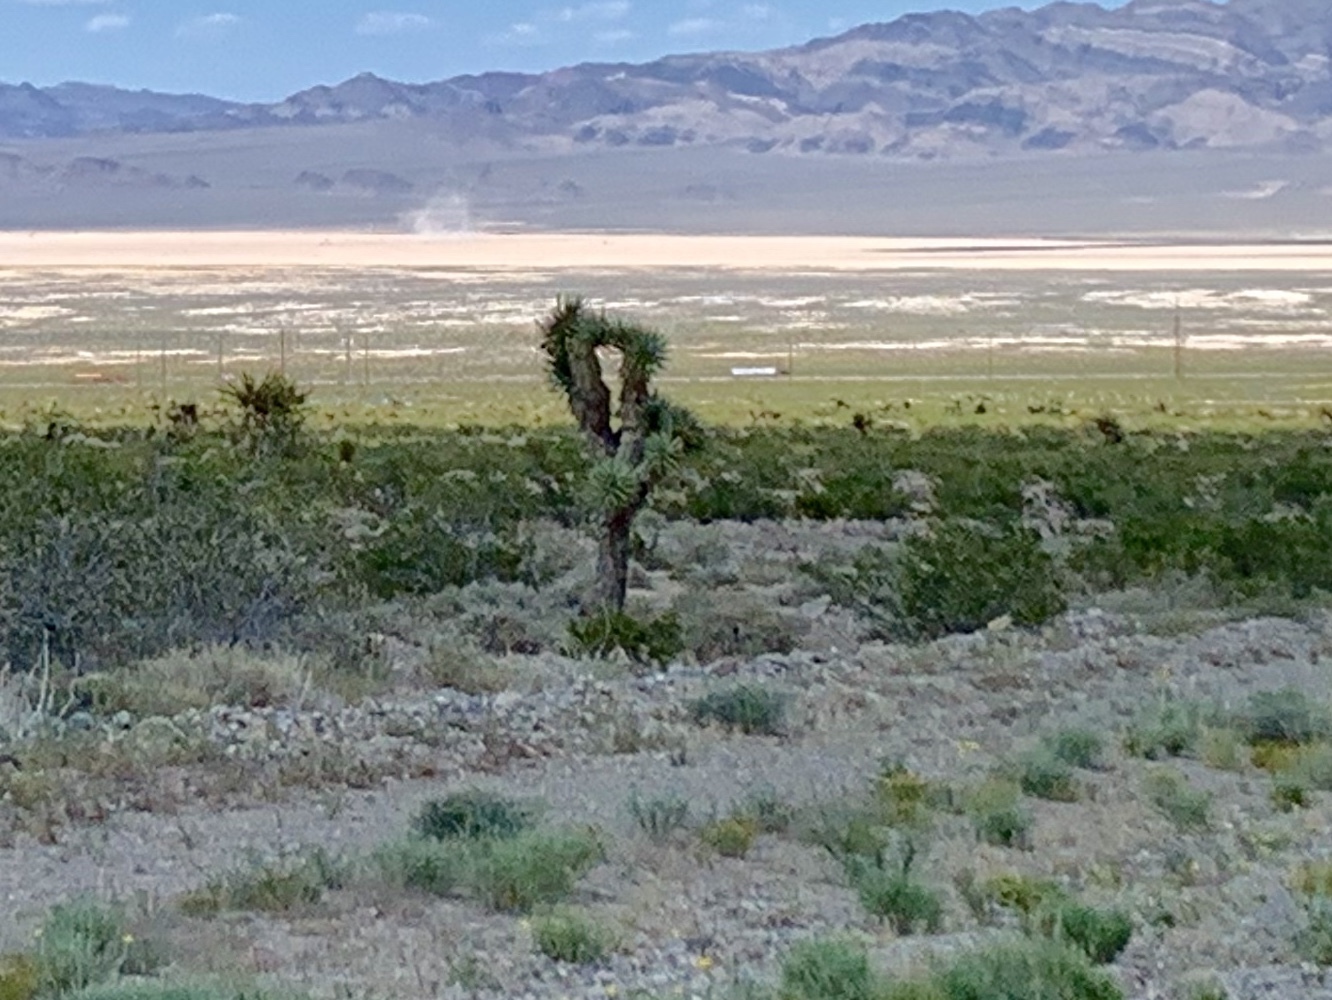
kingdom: Plantae
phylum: Tracheophyta
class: Liliopsida
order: Asparagales
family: Asparagaceae
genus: Yucca
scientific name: Yucca brevifolia
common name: Joshua tree
